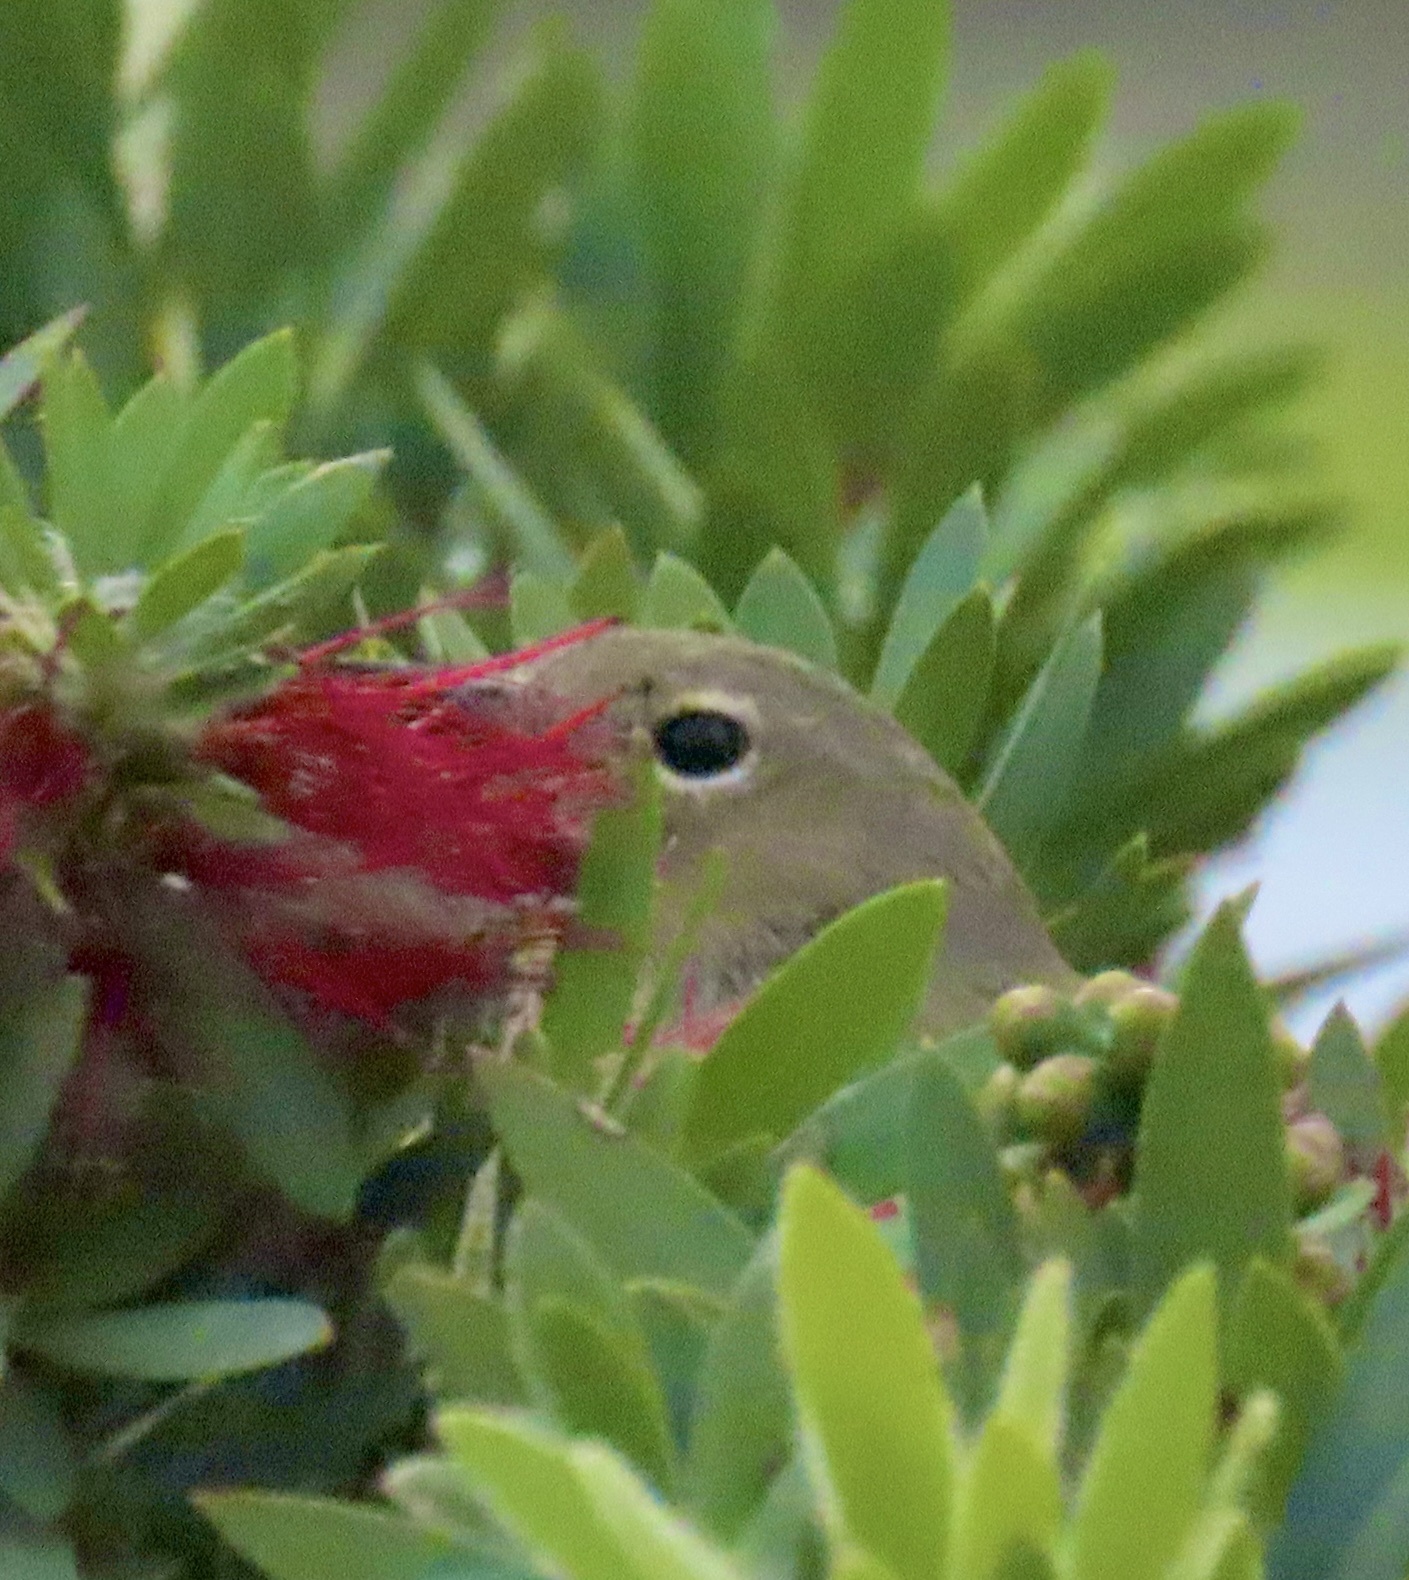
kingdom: Animalia
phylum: Chordata
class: Aves
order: Passeriformes
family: Parulidae
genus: Setophaga
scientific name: Setophaga coronata
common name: Myrtle warbler
